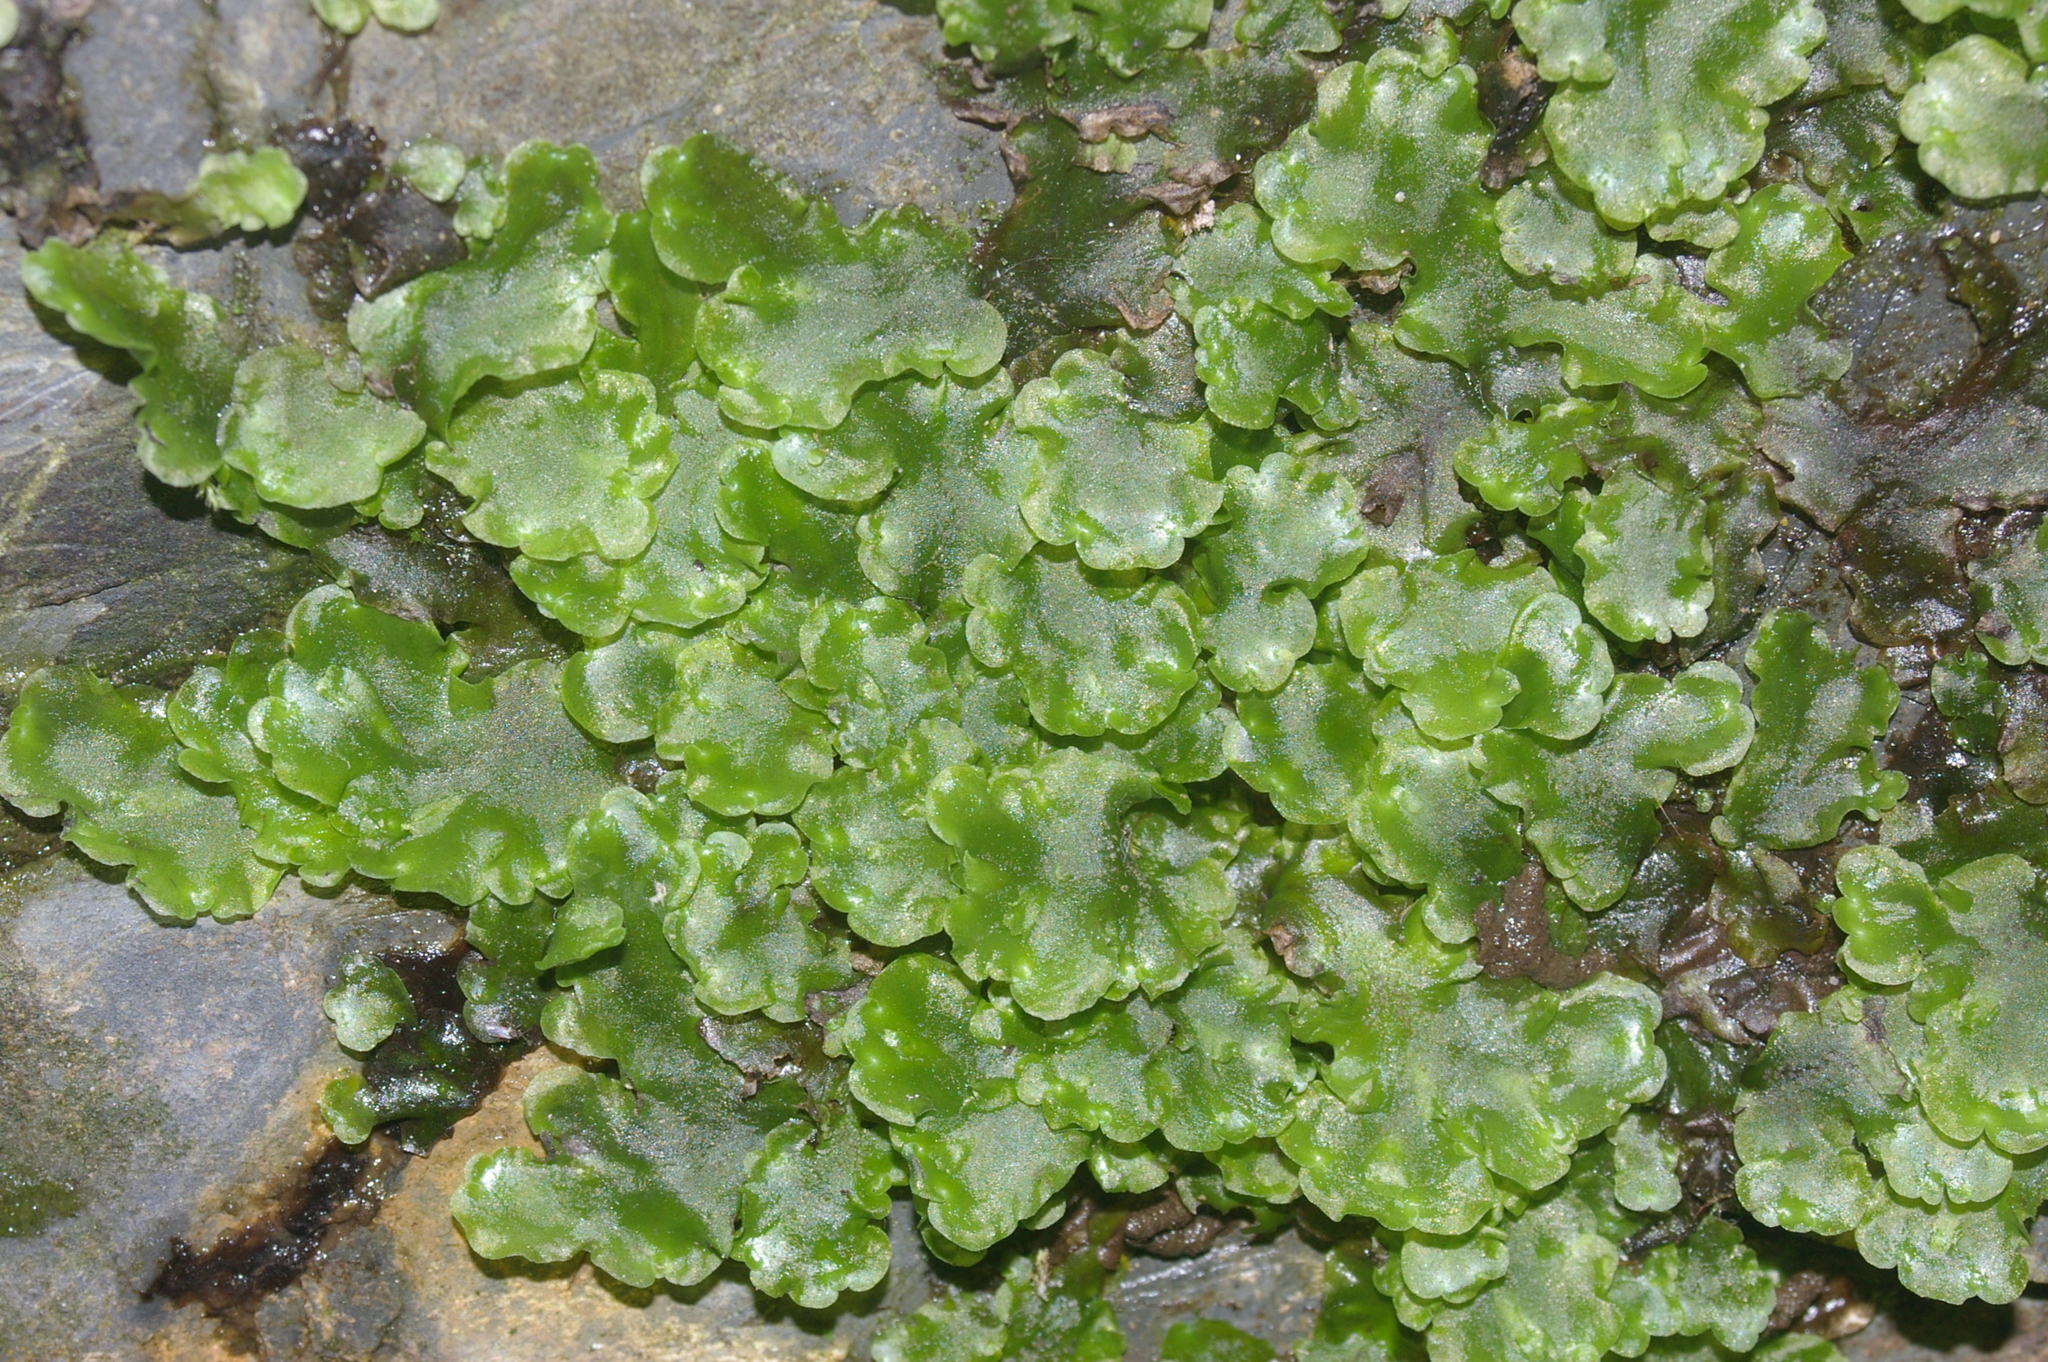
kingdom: Plantae
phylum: Marchantiophyta
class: Jungermanniopsida
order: Pelliales
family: Pelliaceae
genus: Pellia
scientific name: Pellia epiphylla
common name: Common pellia
